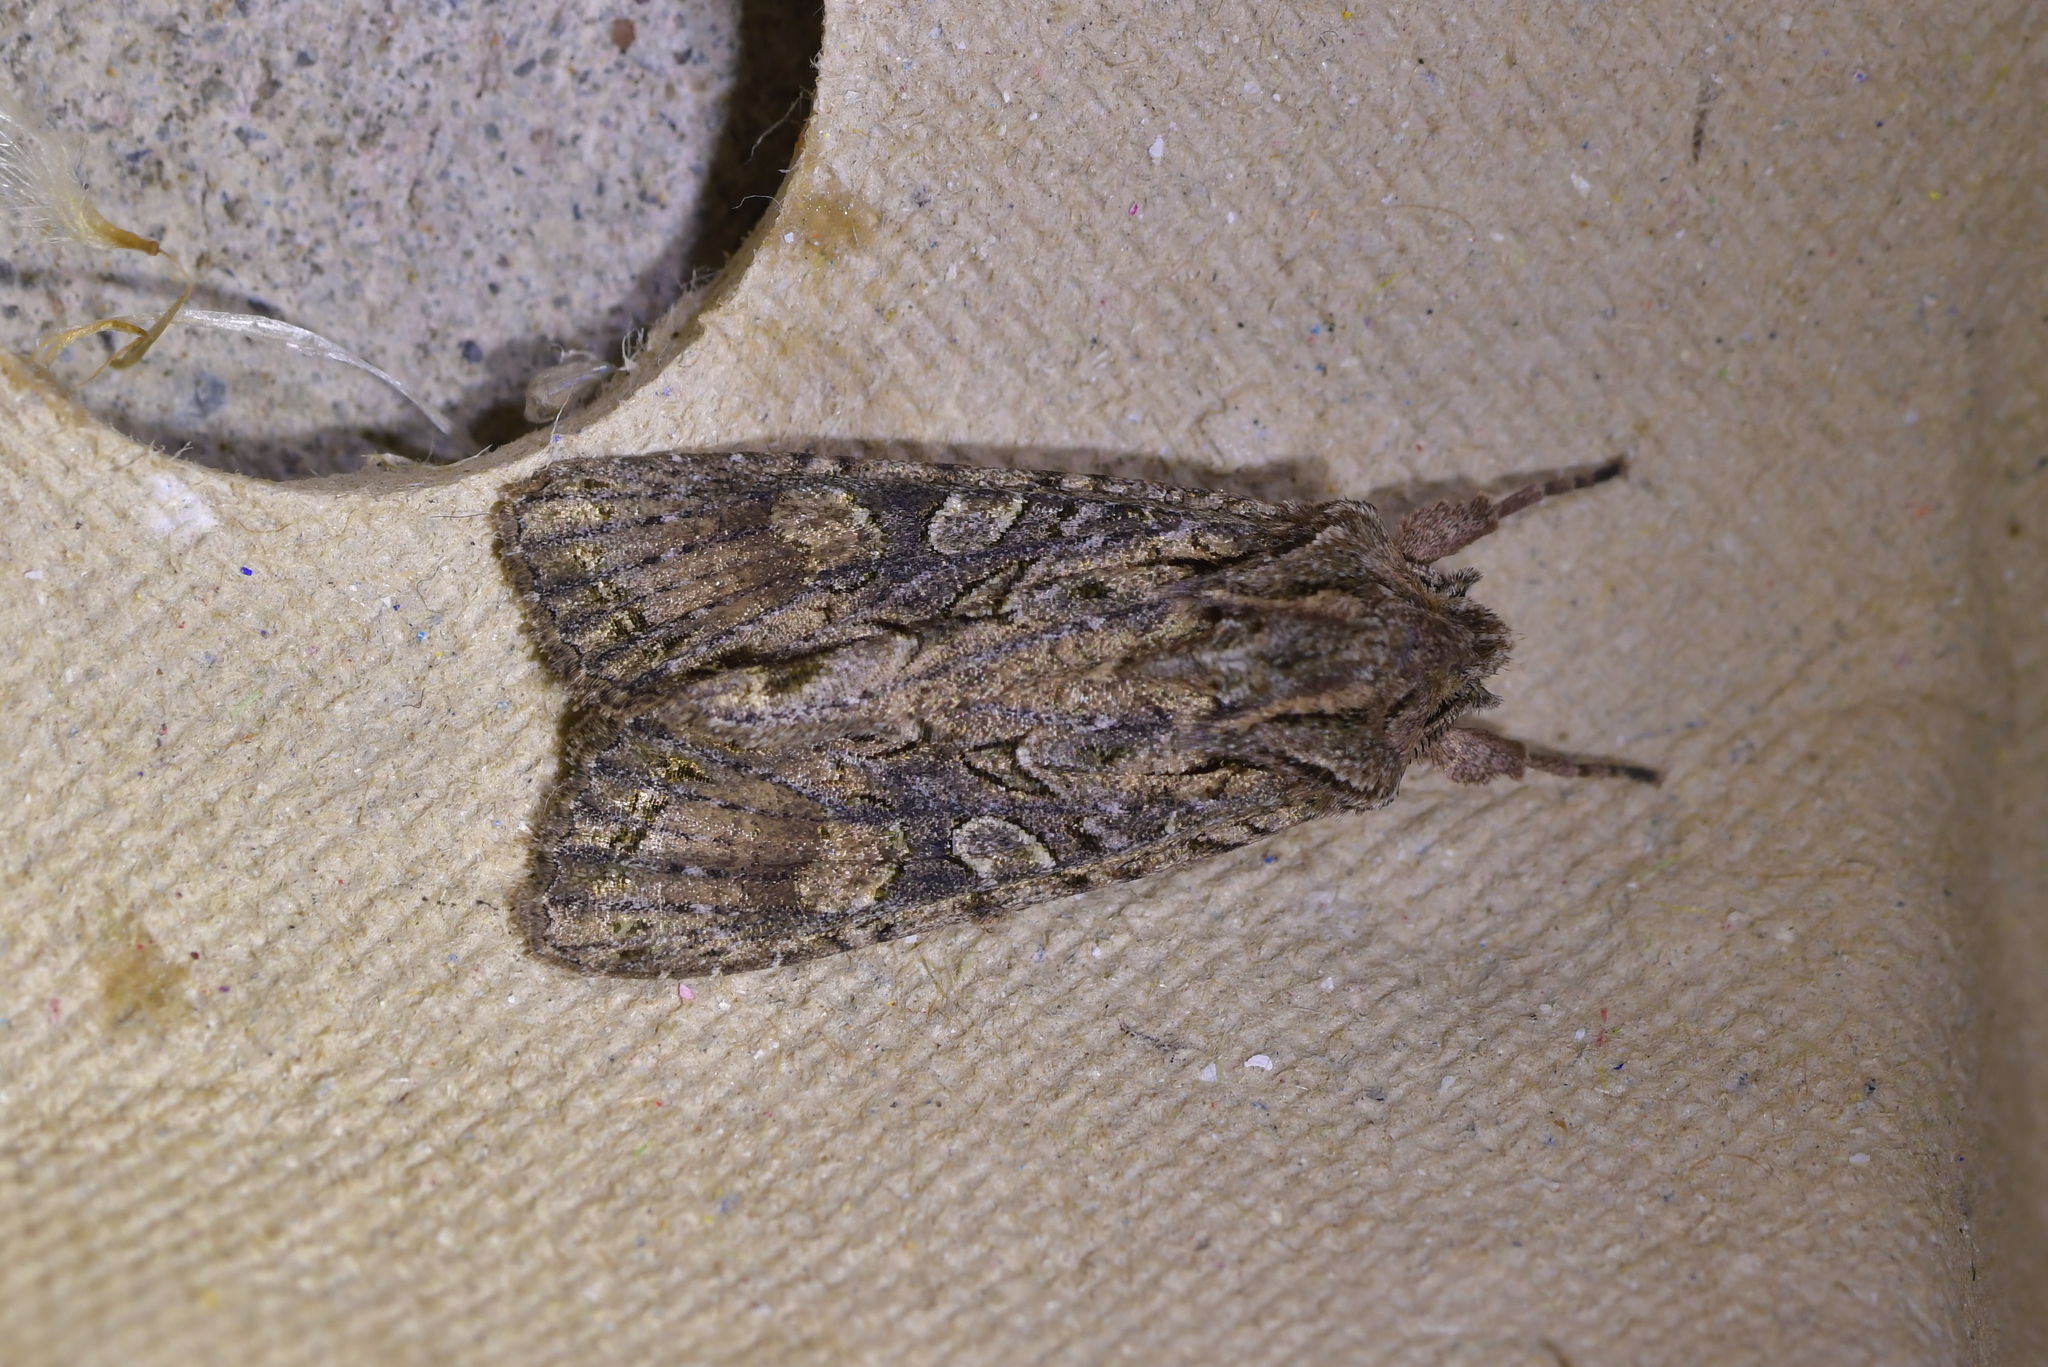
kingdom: Animalia
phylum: Arthropoda
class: Insecta
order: Lepidoptera
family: Noctuidae
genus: Ichneutica
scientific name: Ichneutica mutans
